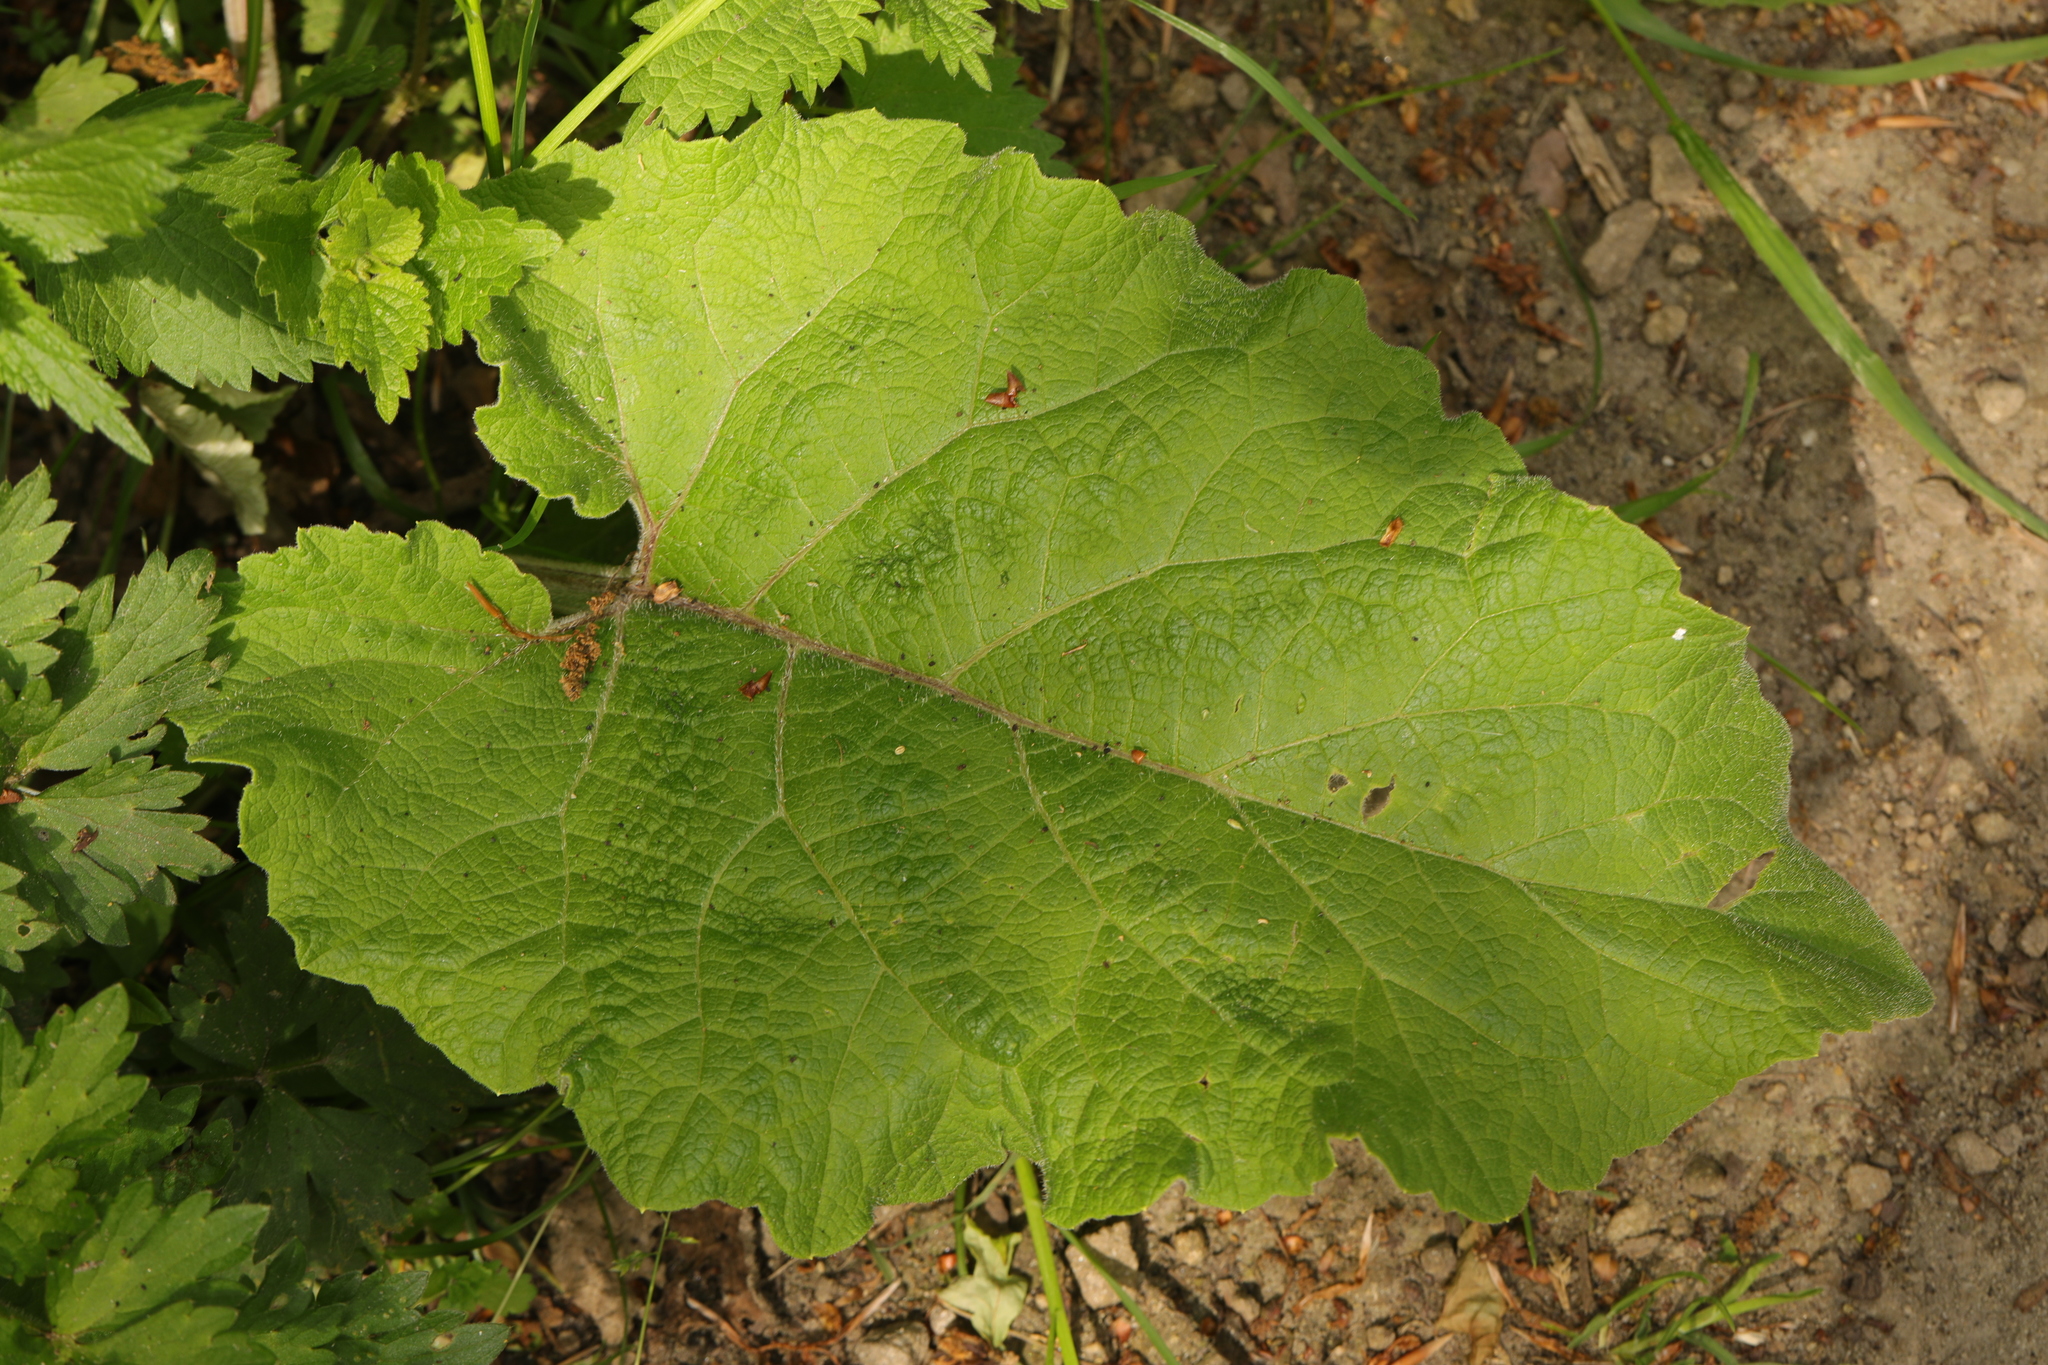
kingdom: Plantae
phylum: Tracheophyta
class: Magnoliopsida
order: Asterales
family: Asteraceae
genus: Arctium
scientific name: Arctium minus
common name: Lesser burdock
